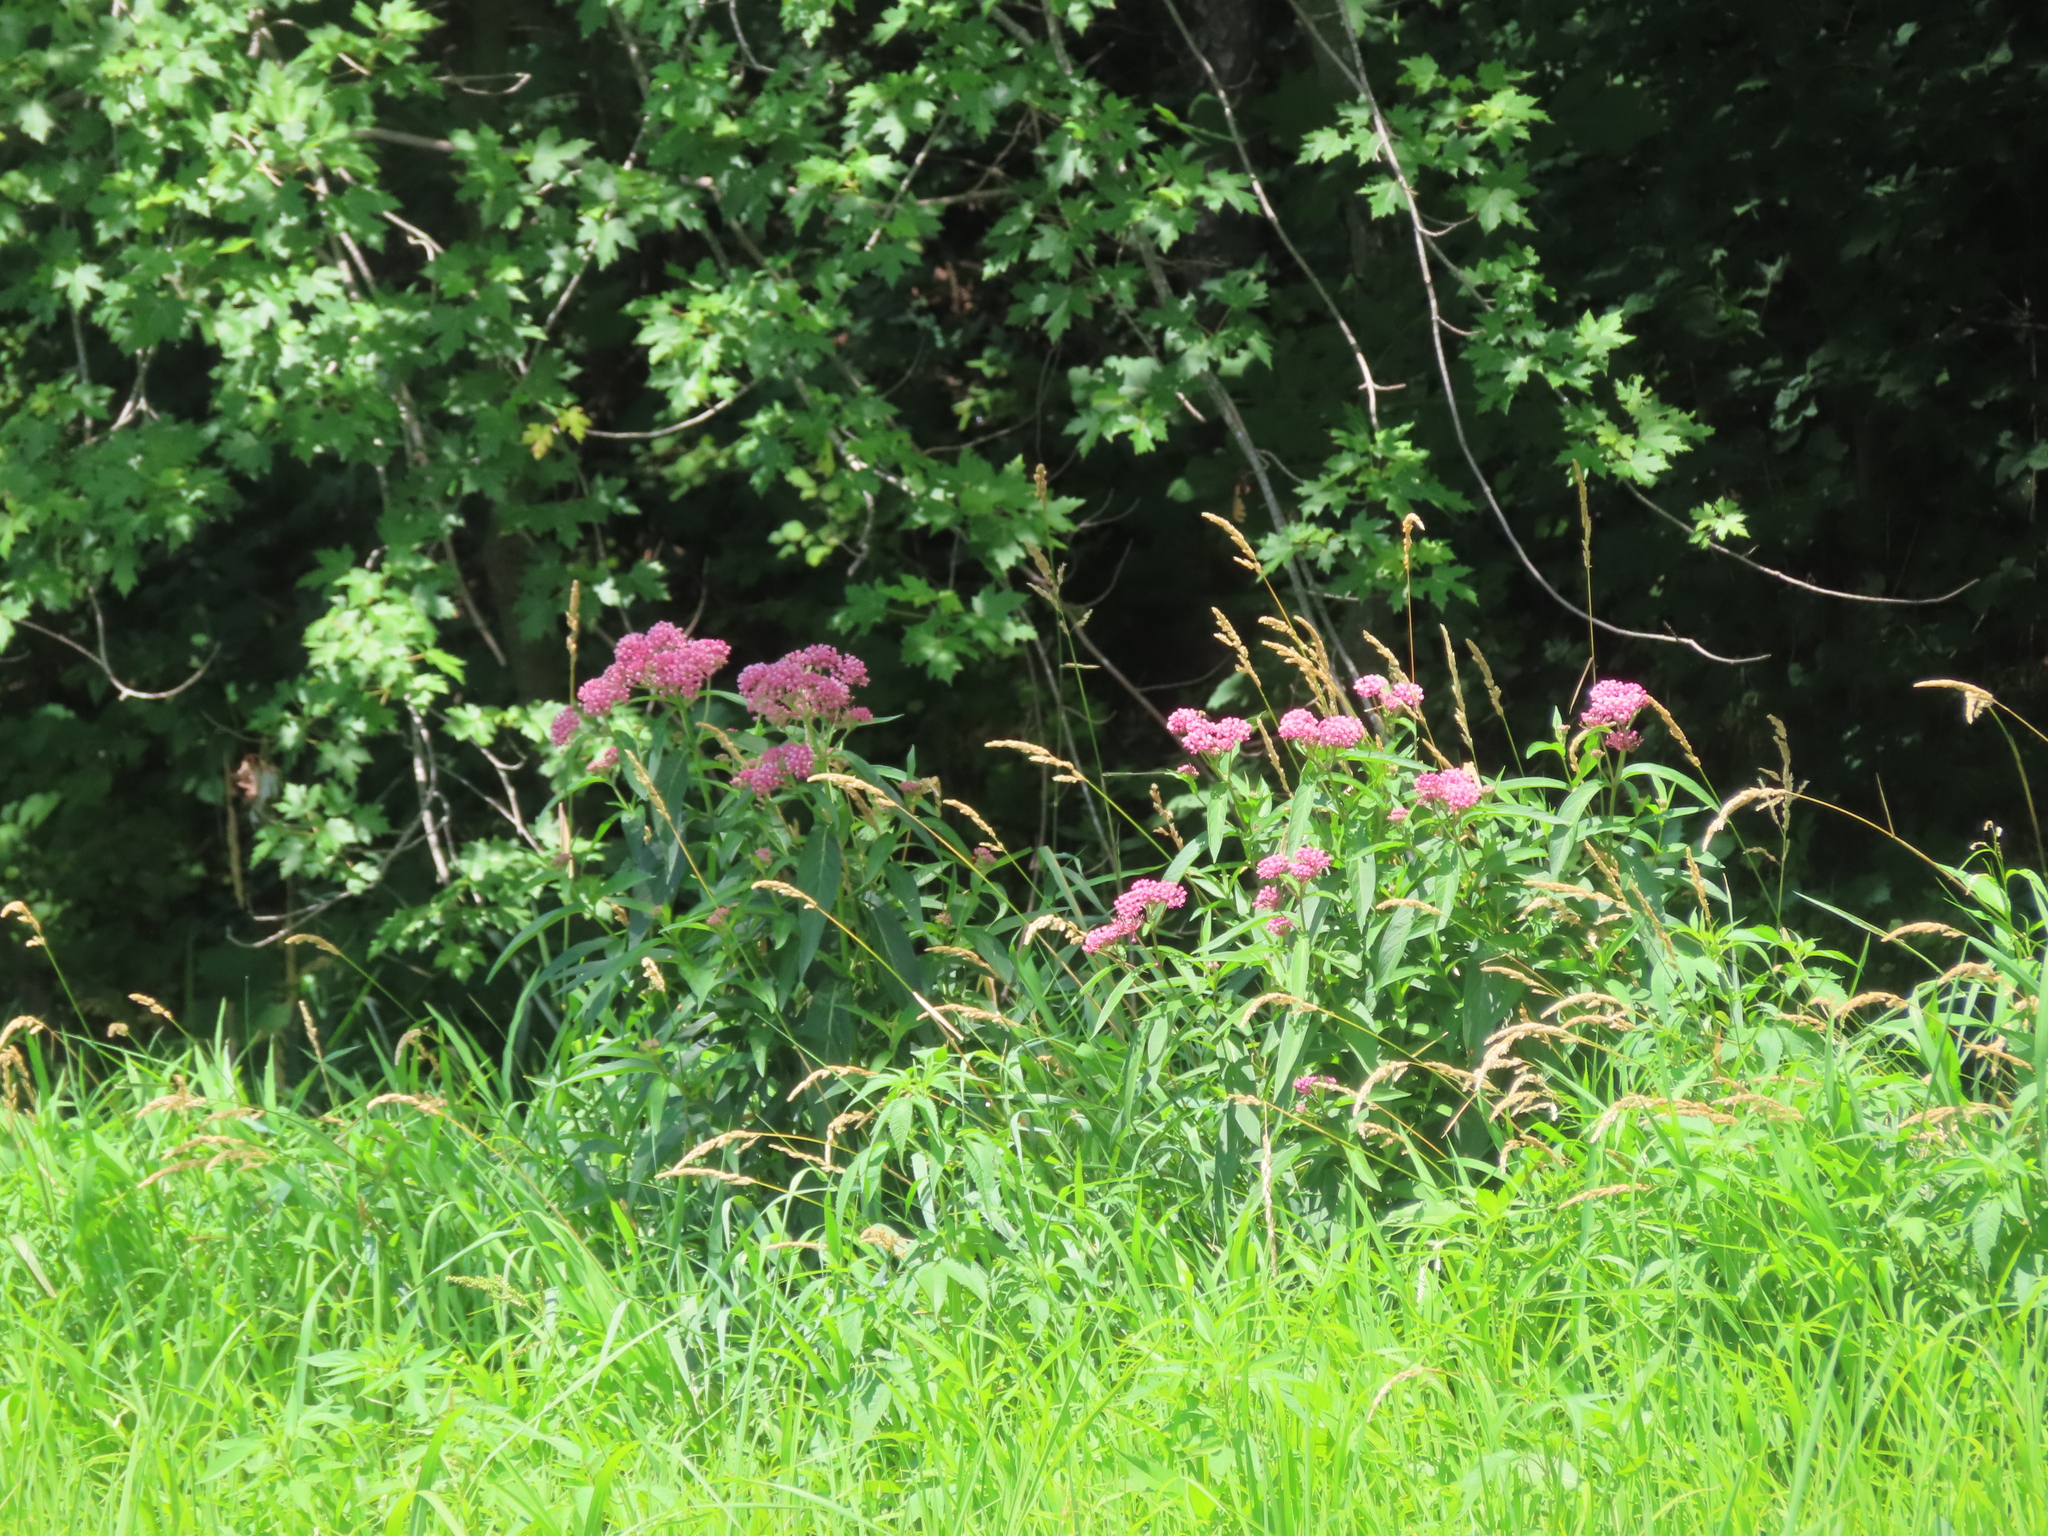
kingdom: Plantae
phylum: Tracheophyta
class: Magnoliopsida
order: Gentianales
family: Apocynaceae
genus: Asclepias
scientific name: Asclepias incarnata
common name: Swamp milkweed
